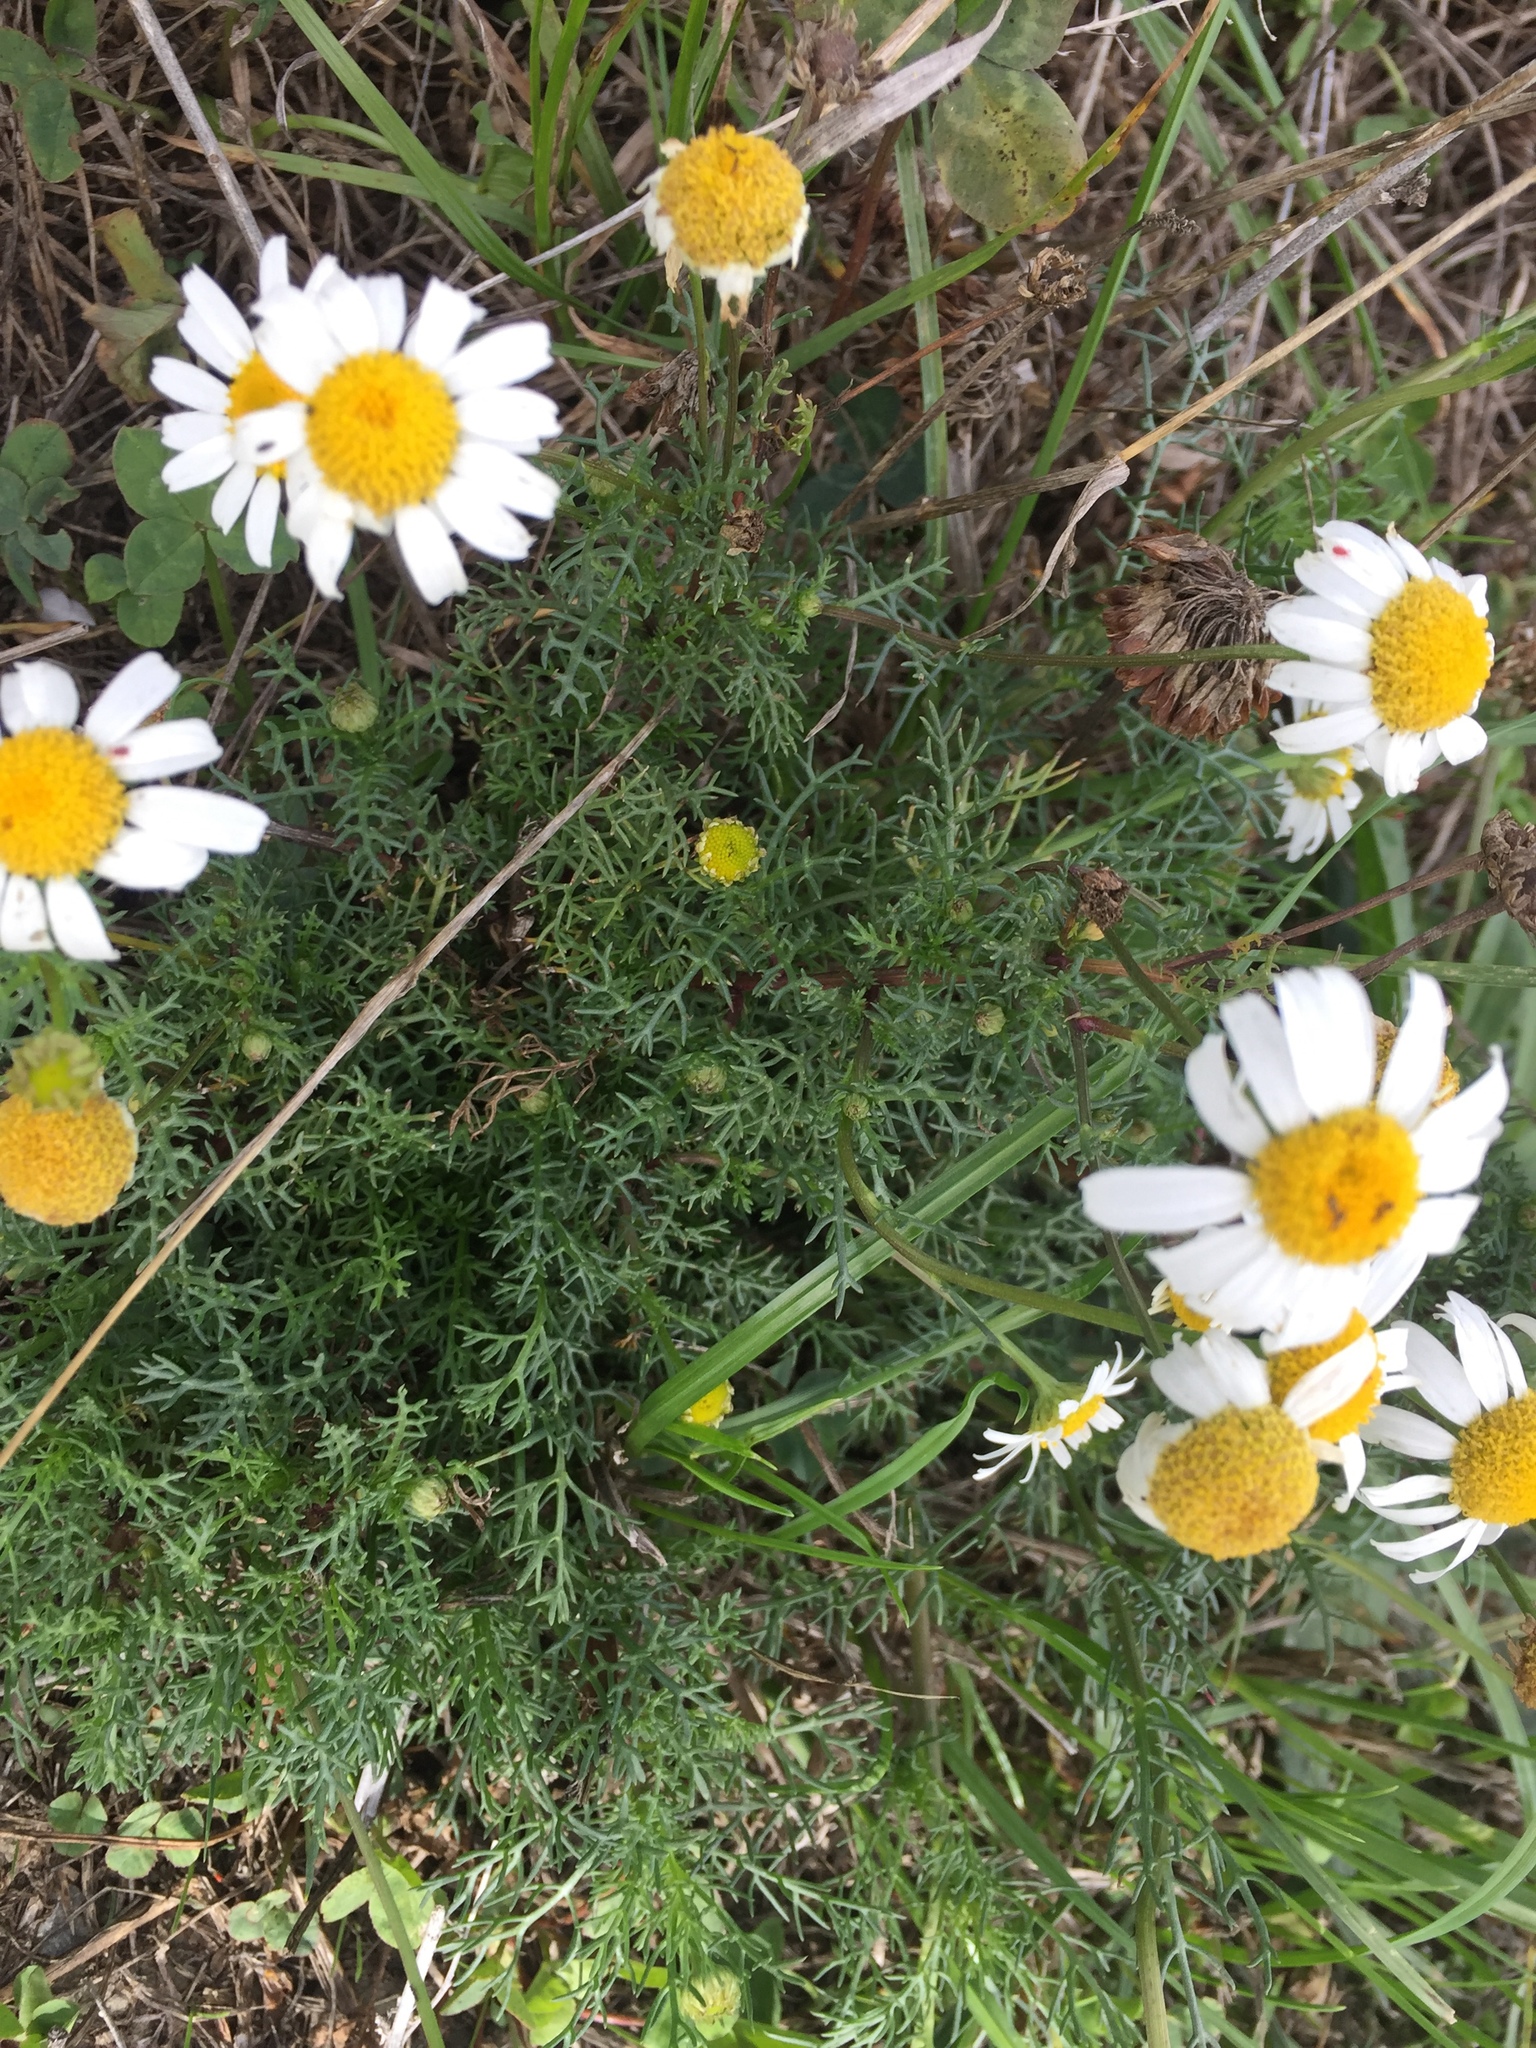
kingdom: Plantae
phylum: Tracheophyta
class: Magnoliopsida
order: Asterales
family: Asteraceae
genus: Tripleurospermum
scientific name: Tripleurospermum inodorum
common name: Scentless mayweed
